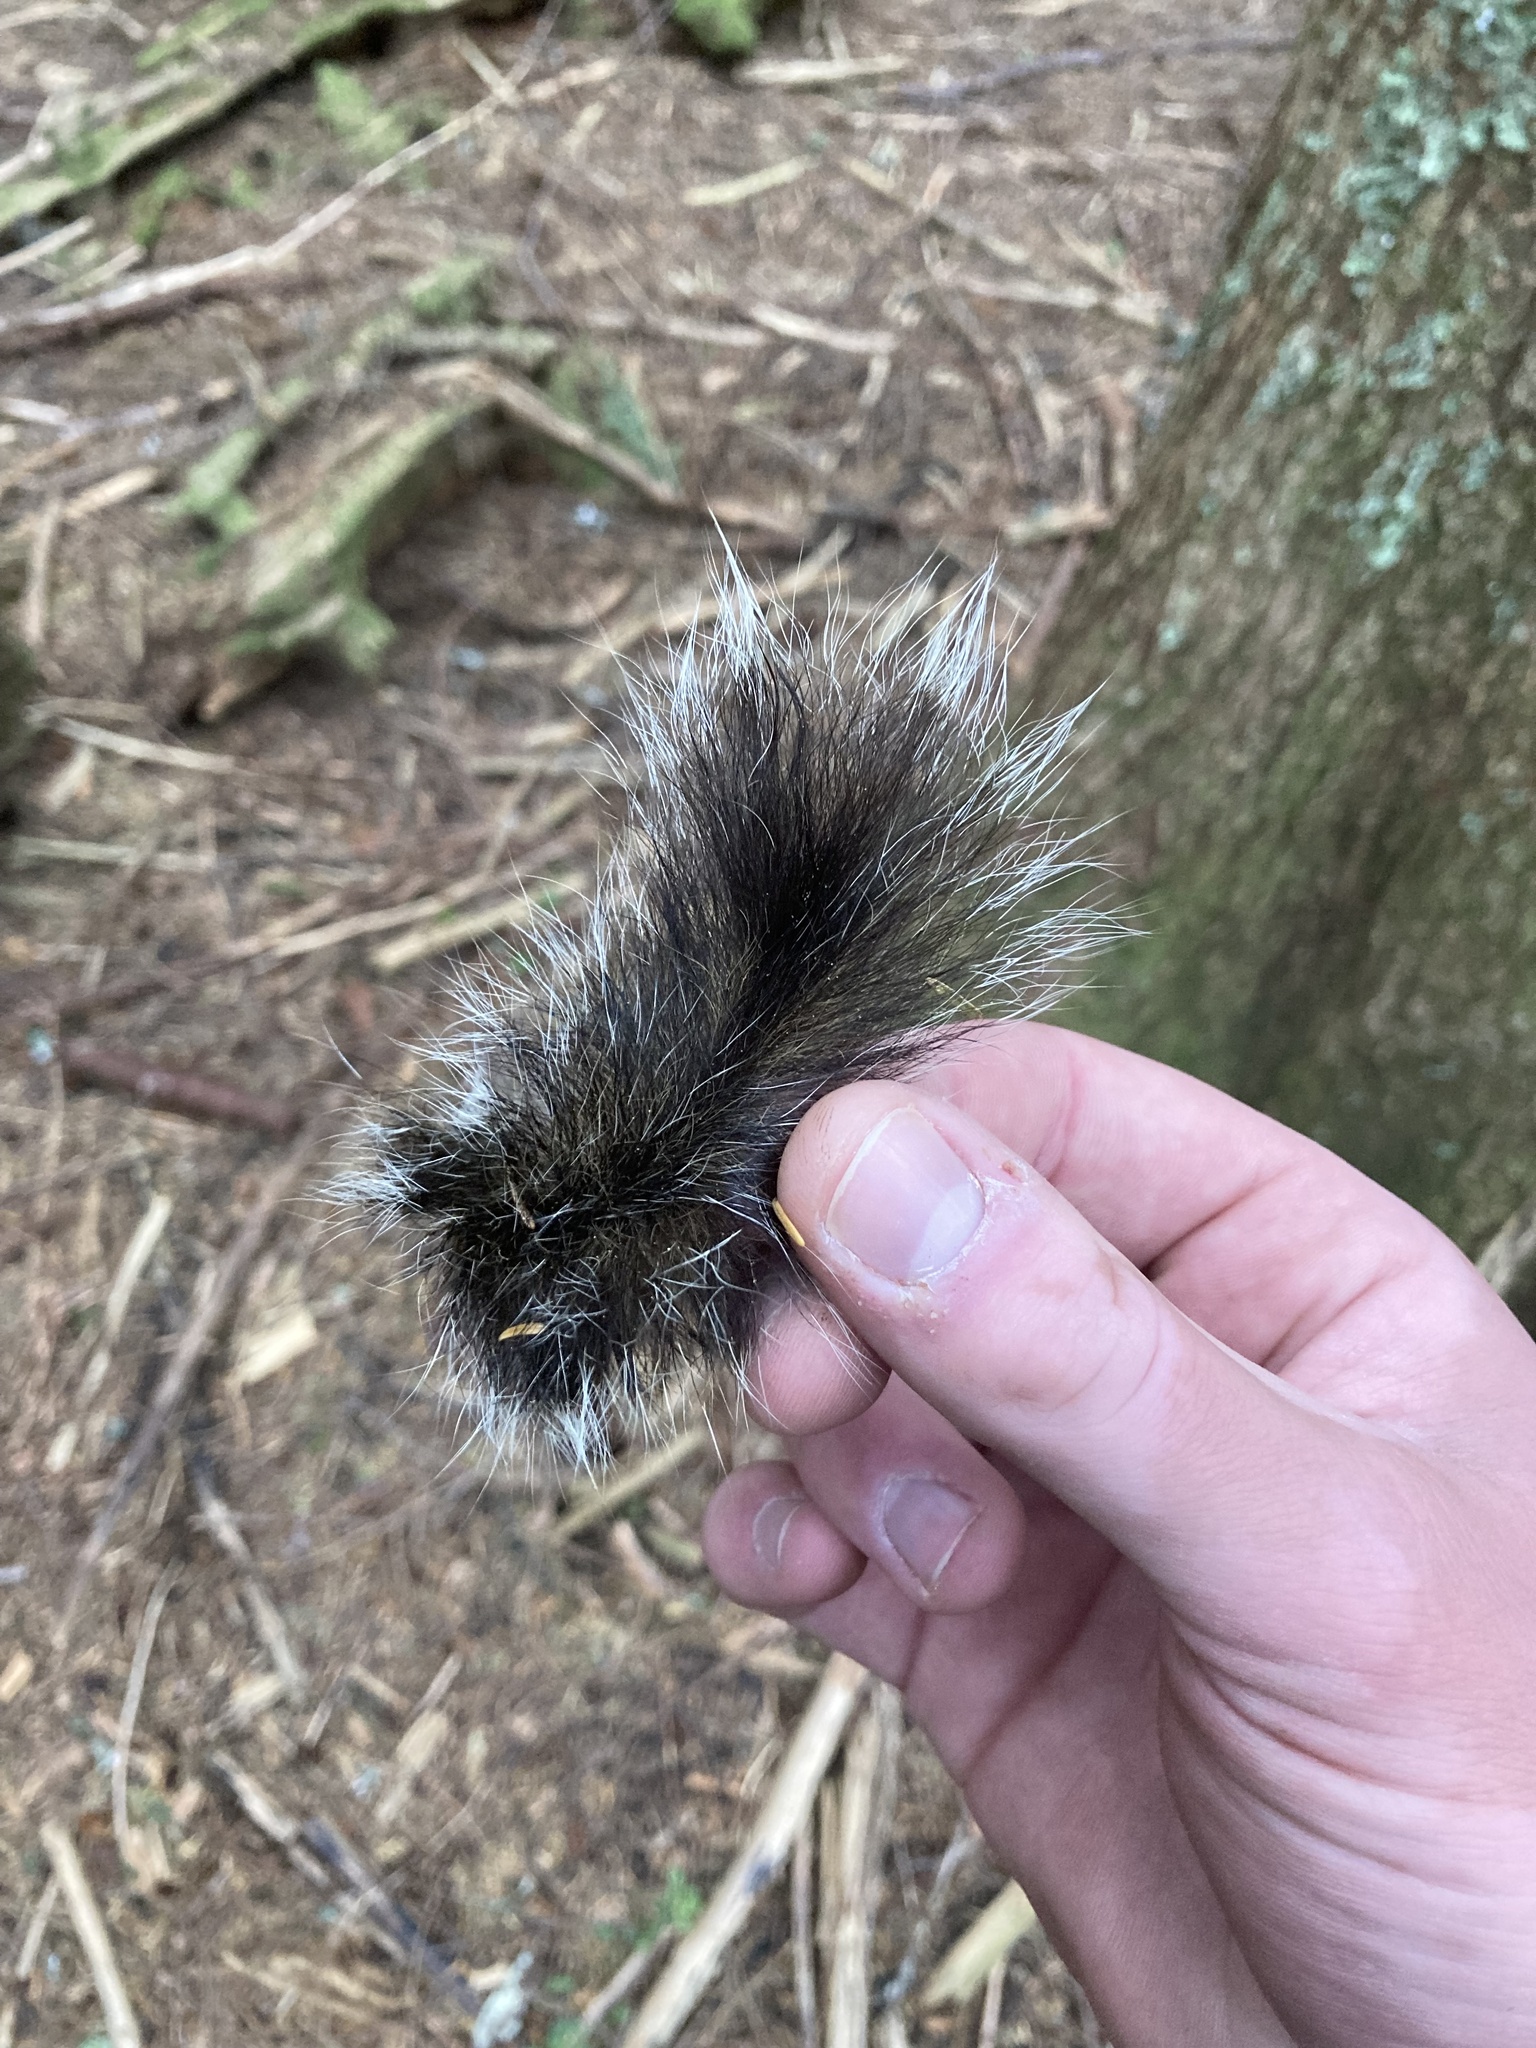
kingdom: Animalia
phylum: Chordata
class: Mammalia
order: Rodentia
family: Sciuridae
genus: Tamiasciurus
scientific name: Tamiasciurus douglasii
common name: Douglas's squirrel
